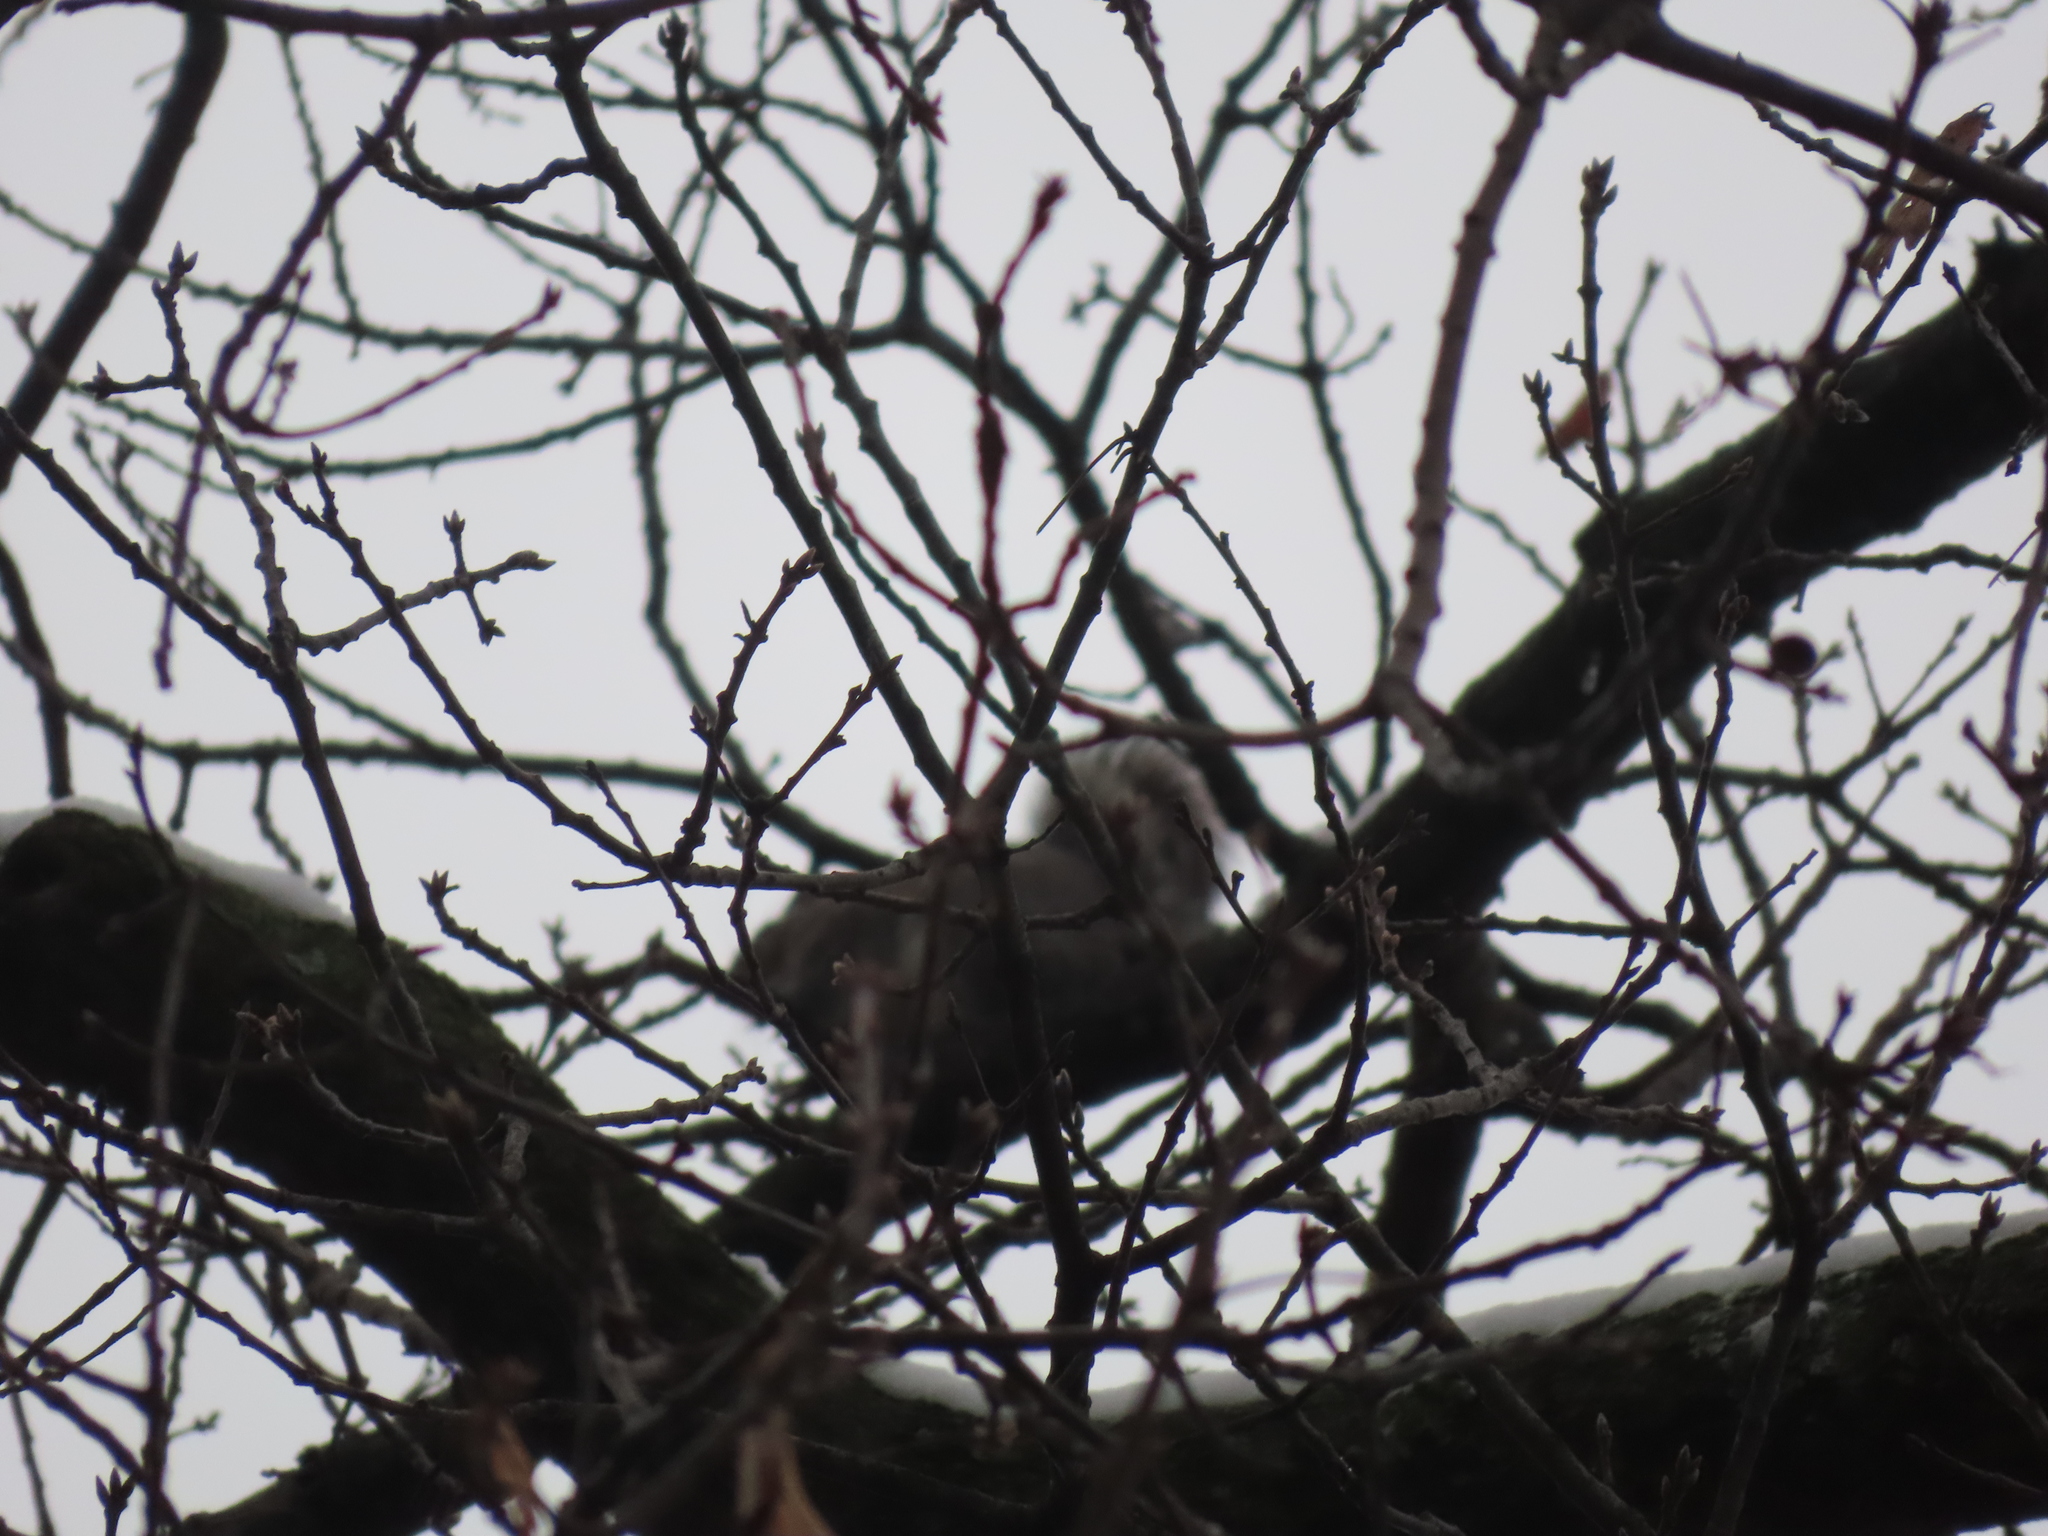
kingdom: Animalia
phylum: Chordata
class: Mammalia
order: Rodentia
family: Sciuridae
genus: Sciurus
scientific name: Sciurus carolinensis
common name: Eastern gray squirrel
